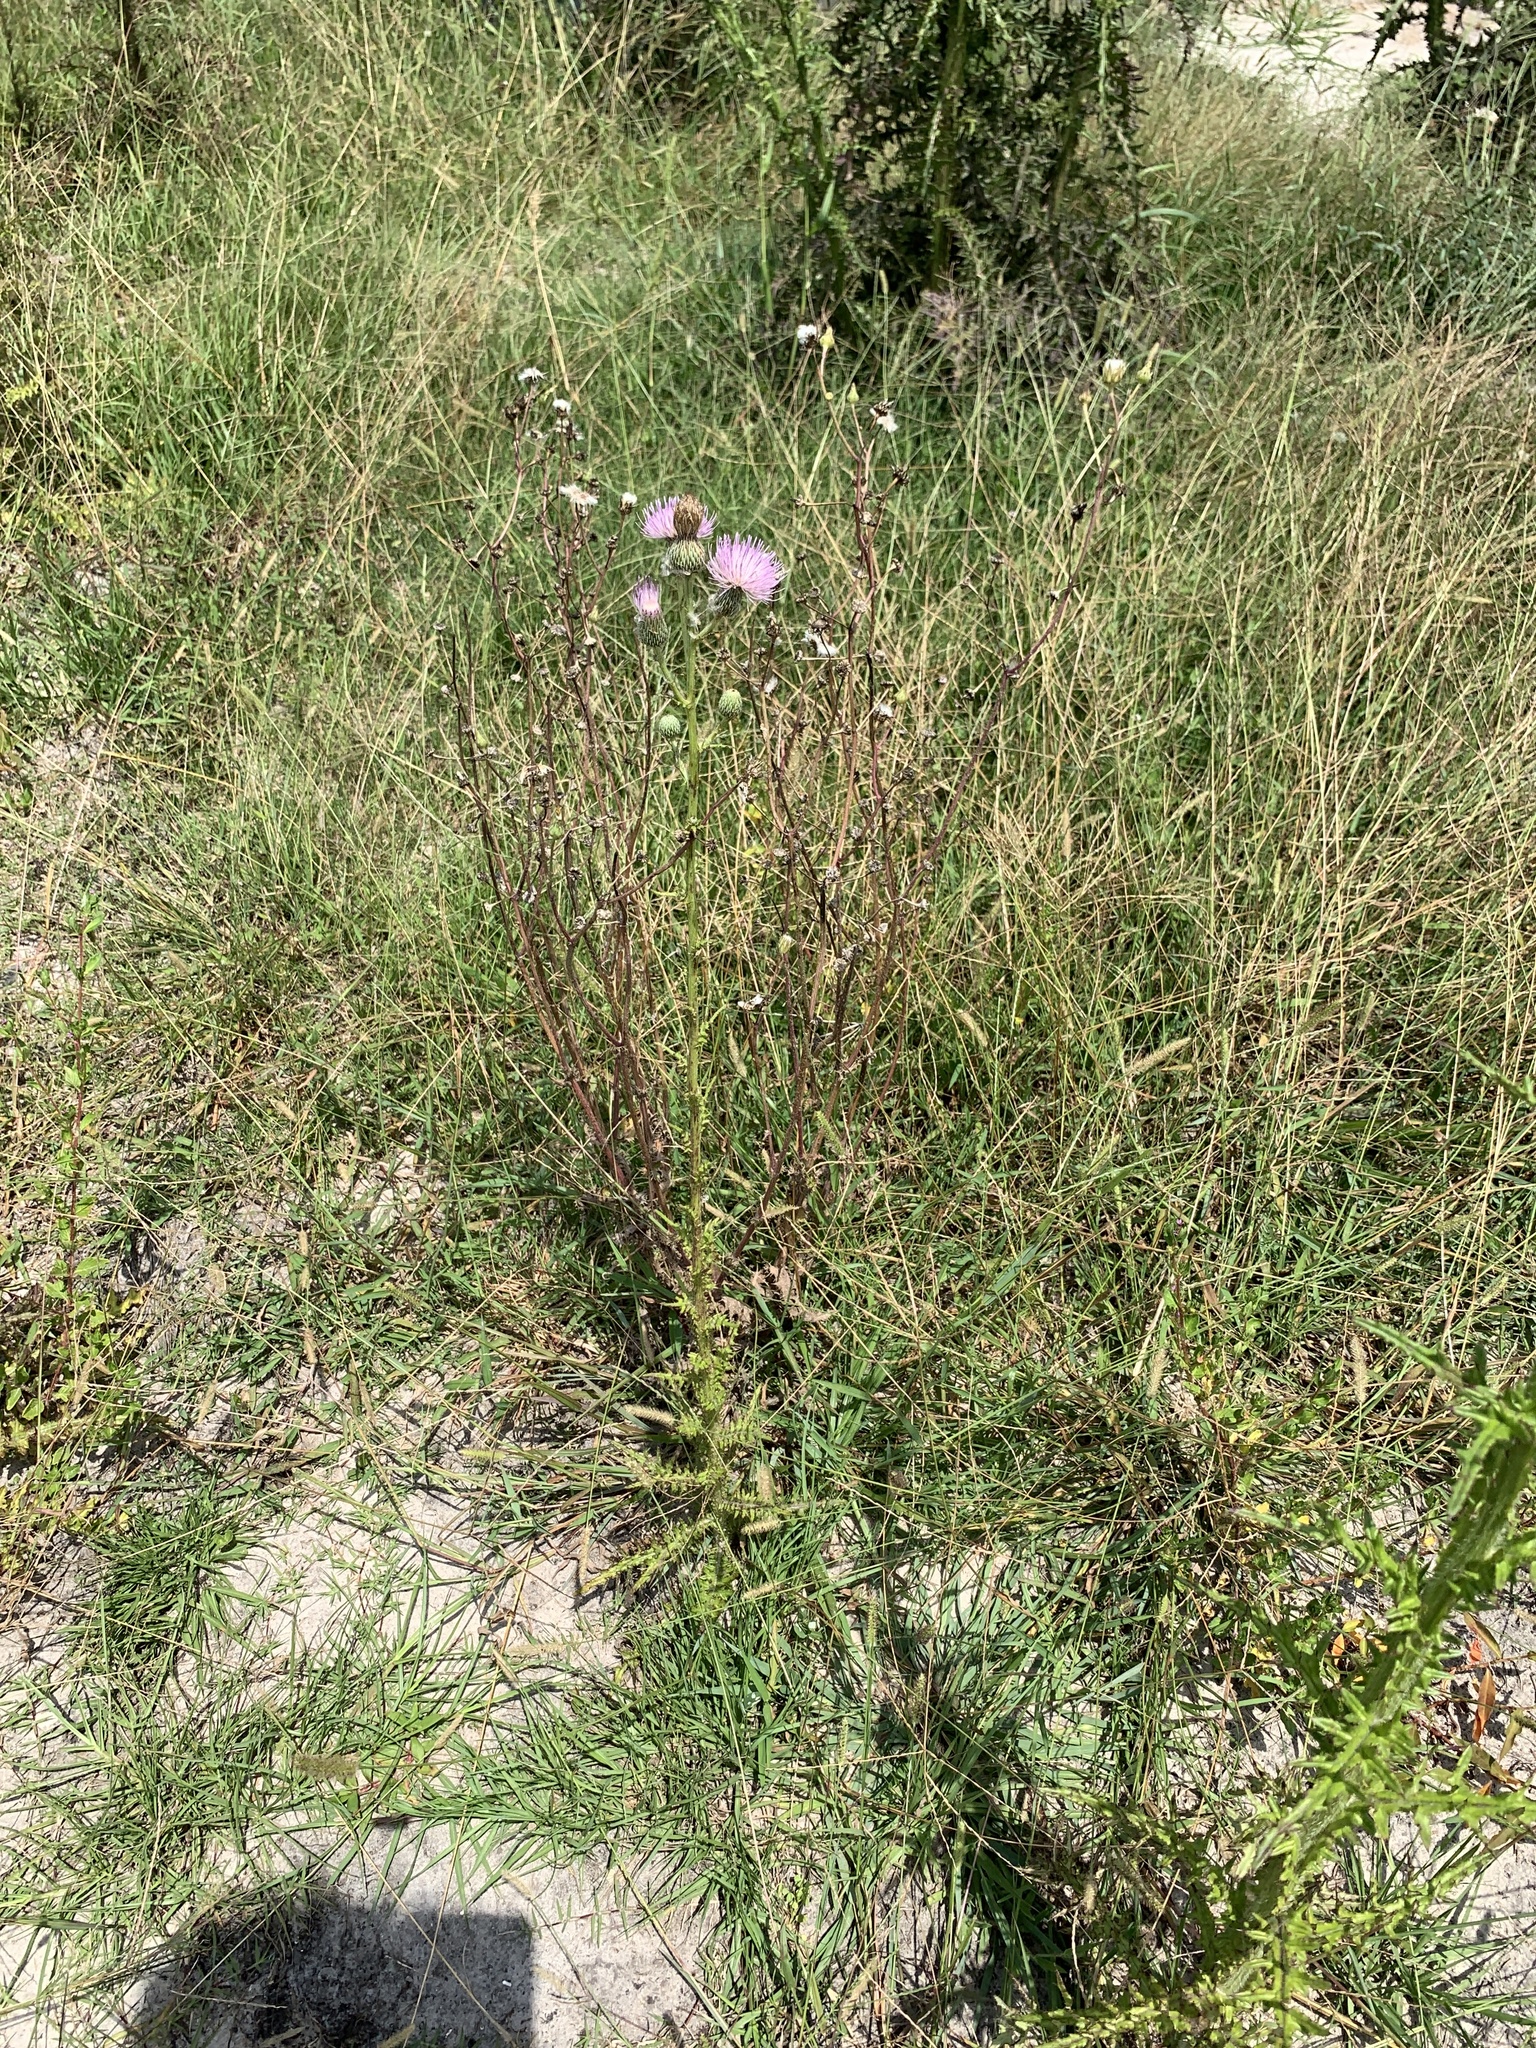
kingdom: Plantae
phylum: Tracheophyta
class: Magnoliopsida
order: Asterales
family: Asteraceae
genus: Cirsium
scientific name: Cirsium nuttalii
